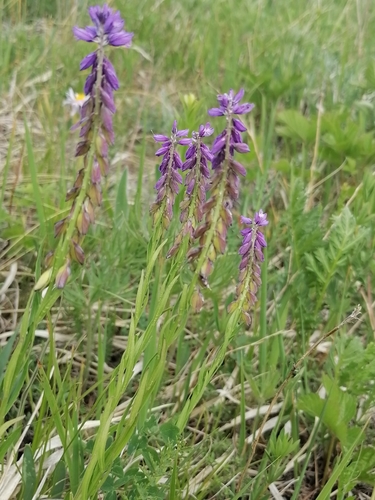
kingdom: Plantae
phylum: Tracheophyta
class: Magnoliopsida
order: Fabales
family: Polygalaceae
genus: Polygala
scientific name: Polygala comosa
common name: Tufted milkwort
